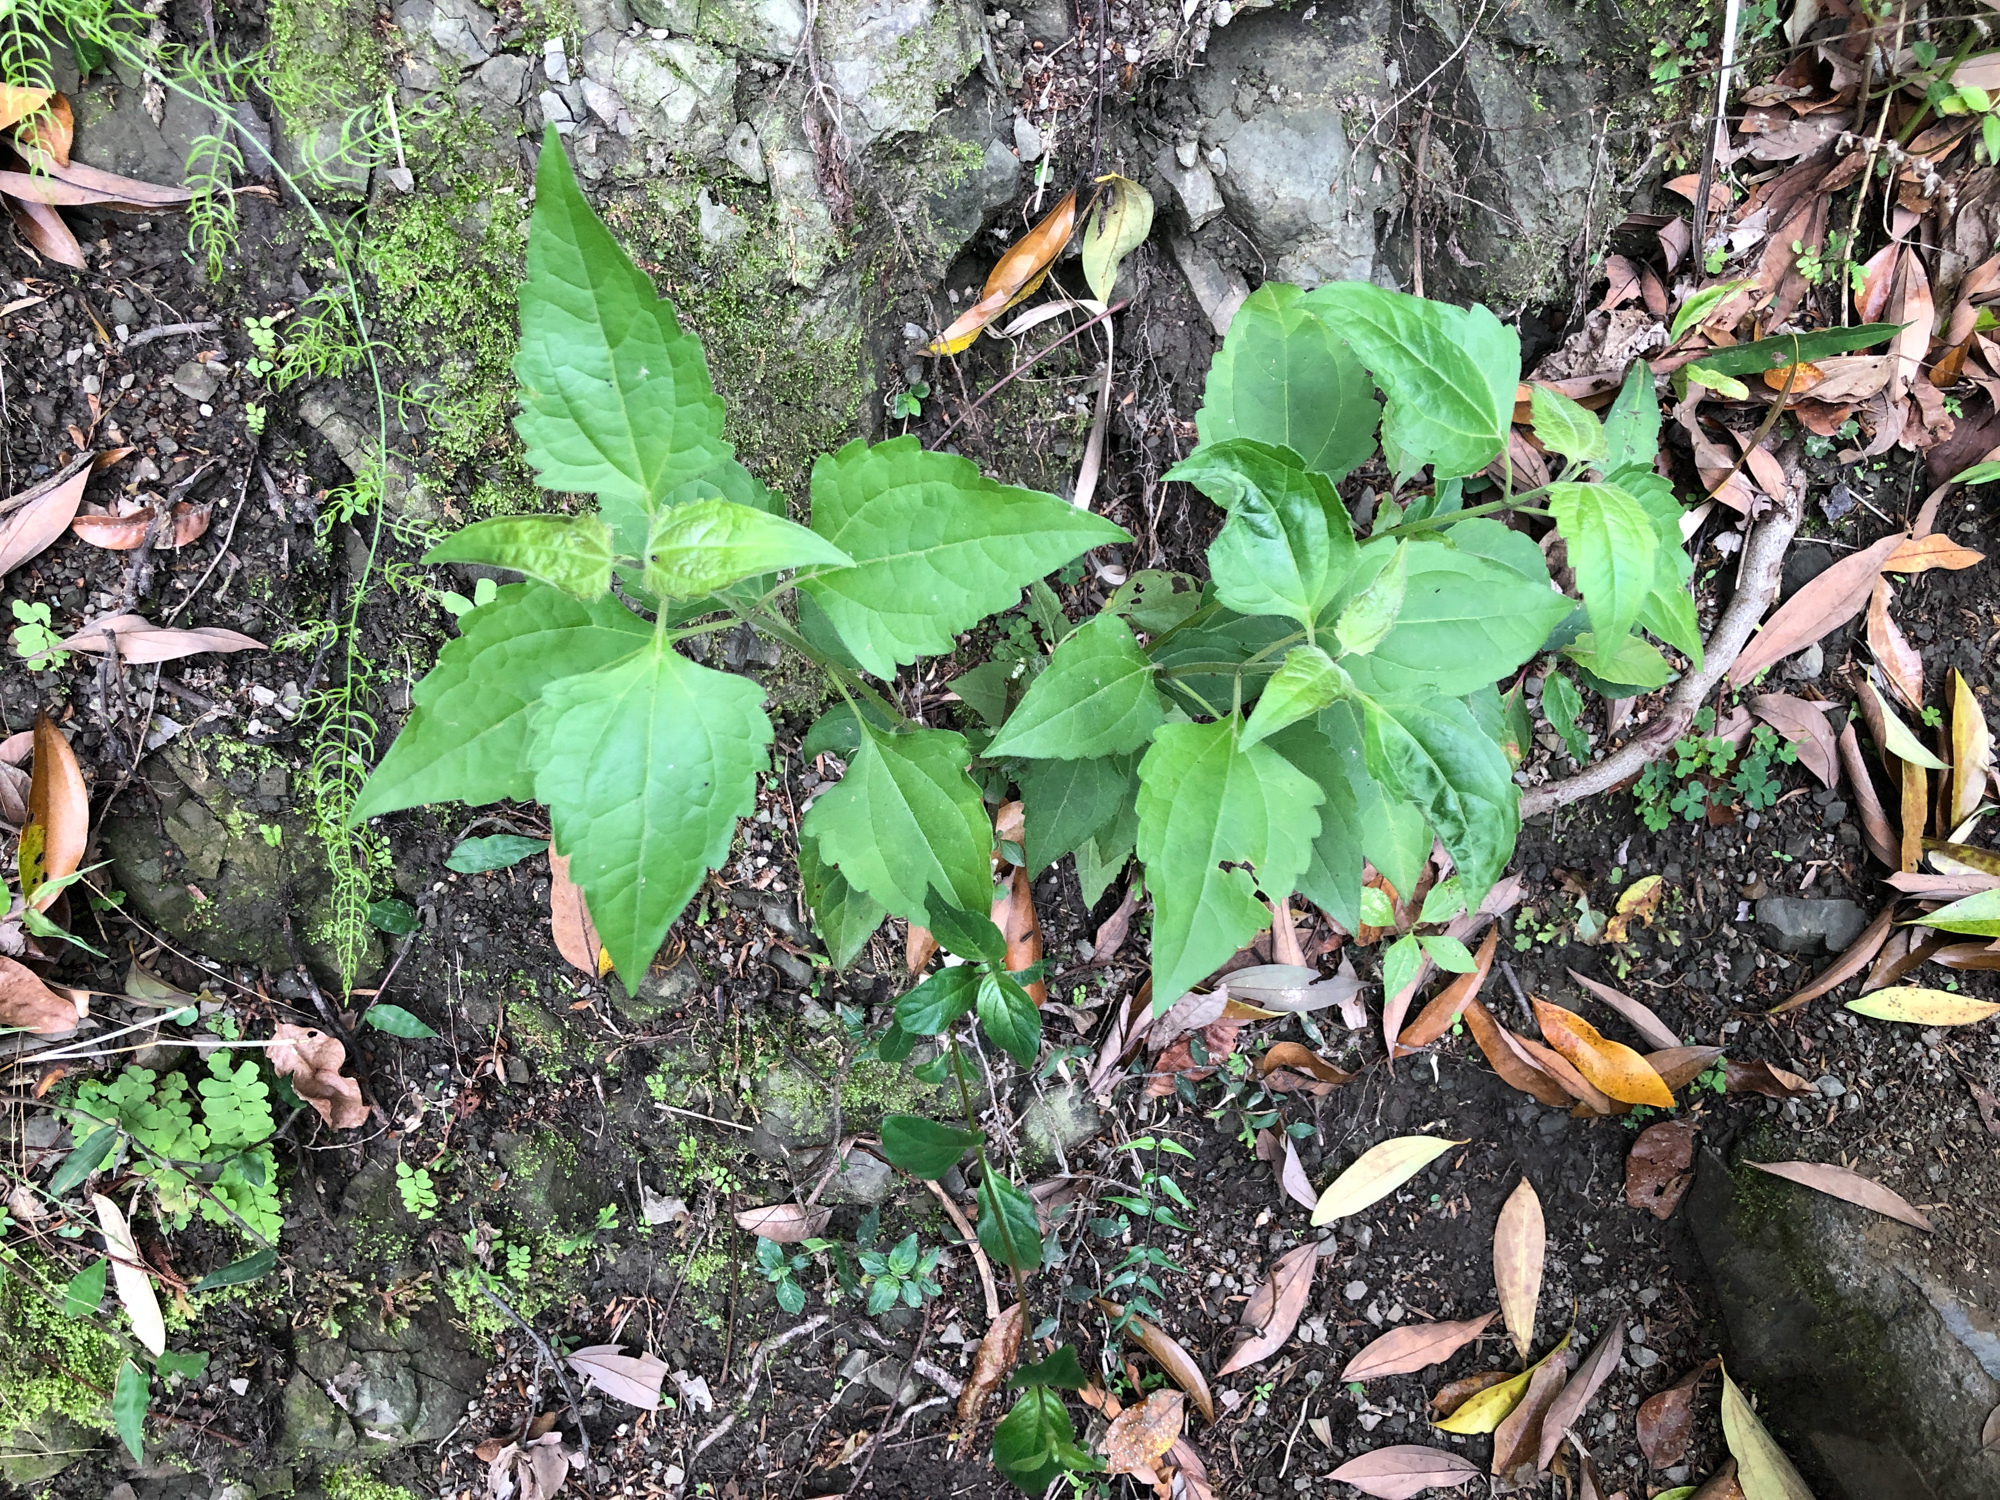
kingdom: Plantae
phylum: Tracheophyta
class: Magnoliopsida
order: Asterales
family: Asteraceae
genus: Chromolaena
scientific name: Chromolaena odorata
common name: Siamweed
